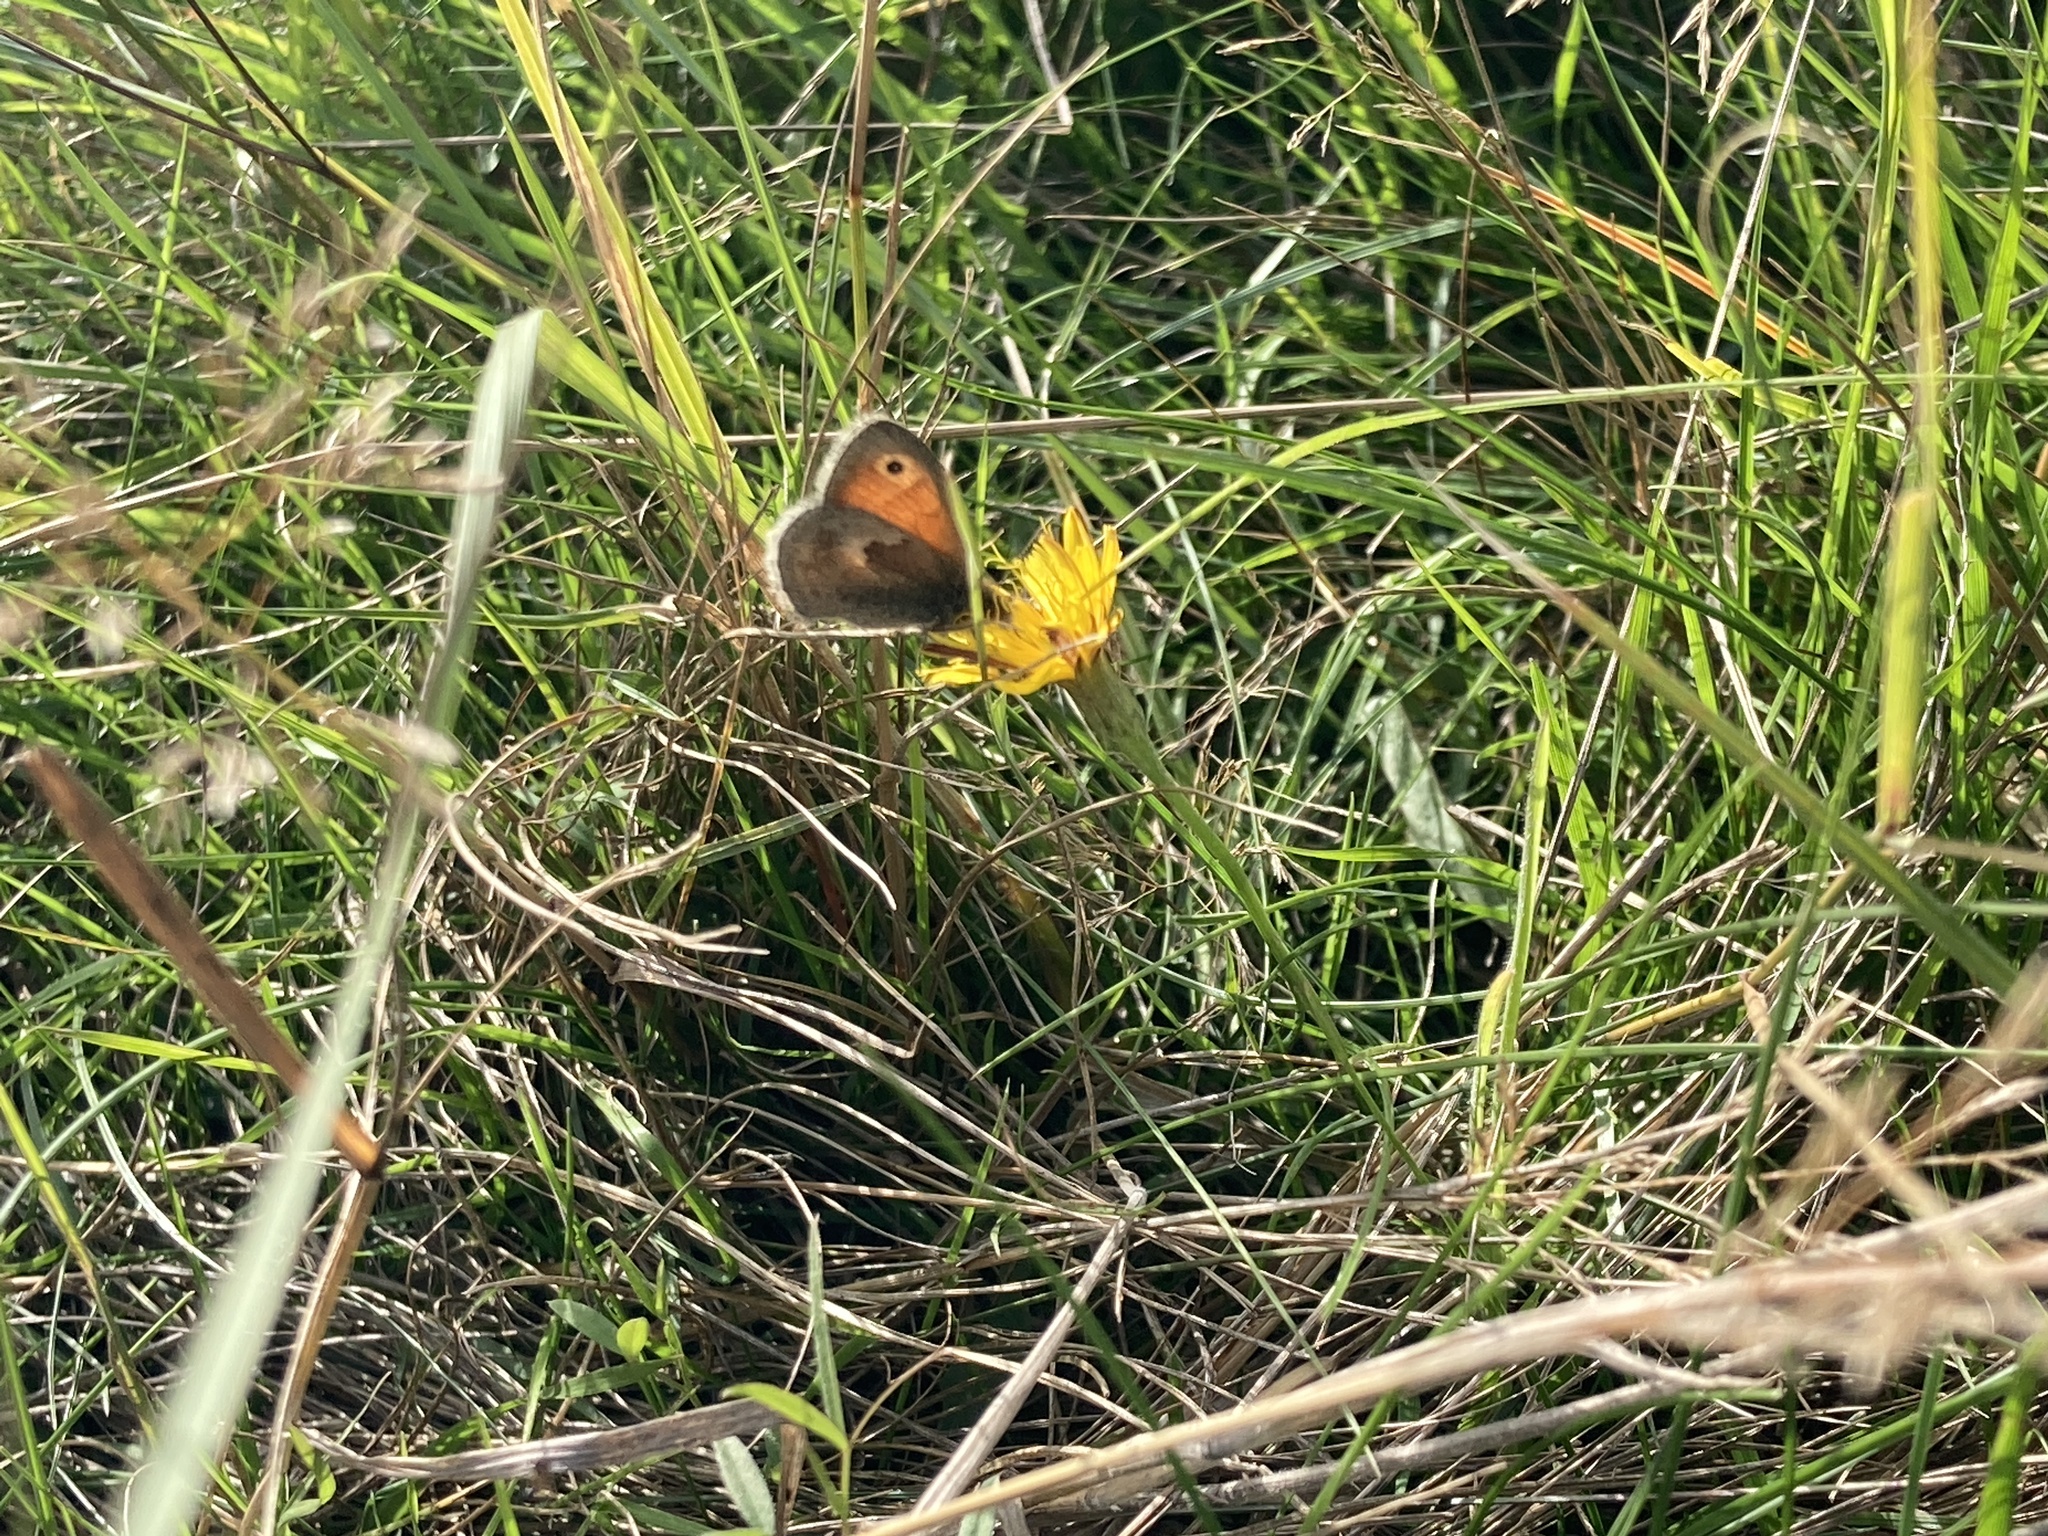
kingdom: Animalia
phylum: Arthropoda
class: Insecta
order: Lepidoptera
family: Nymphalidae
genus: Coenonympha
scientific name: Coenonympha pamphilus
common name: Small heath
